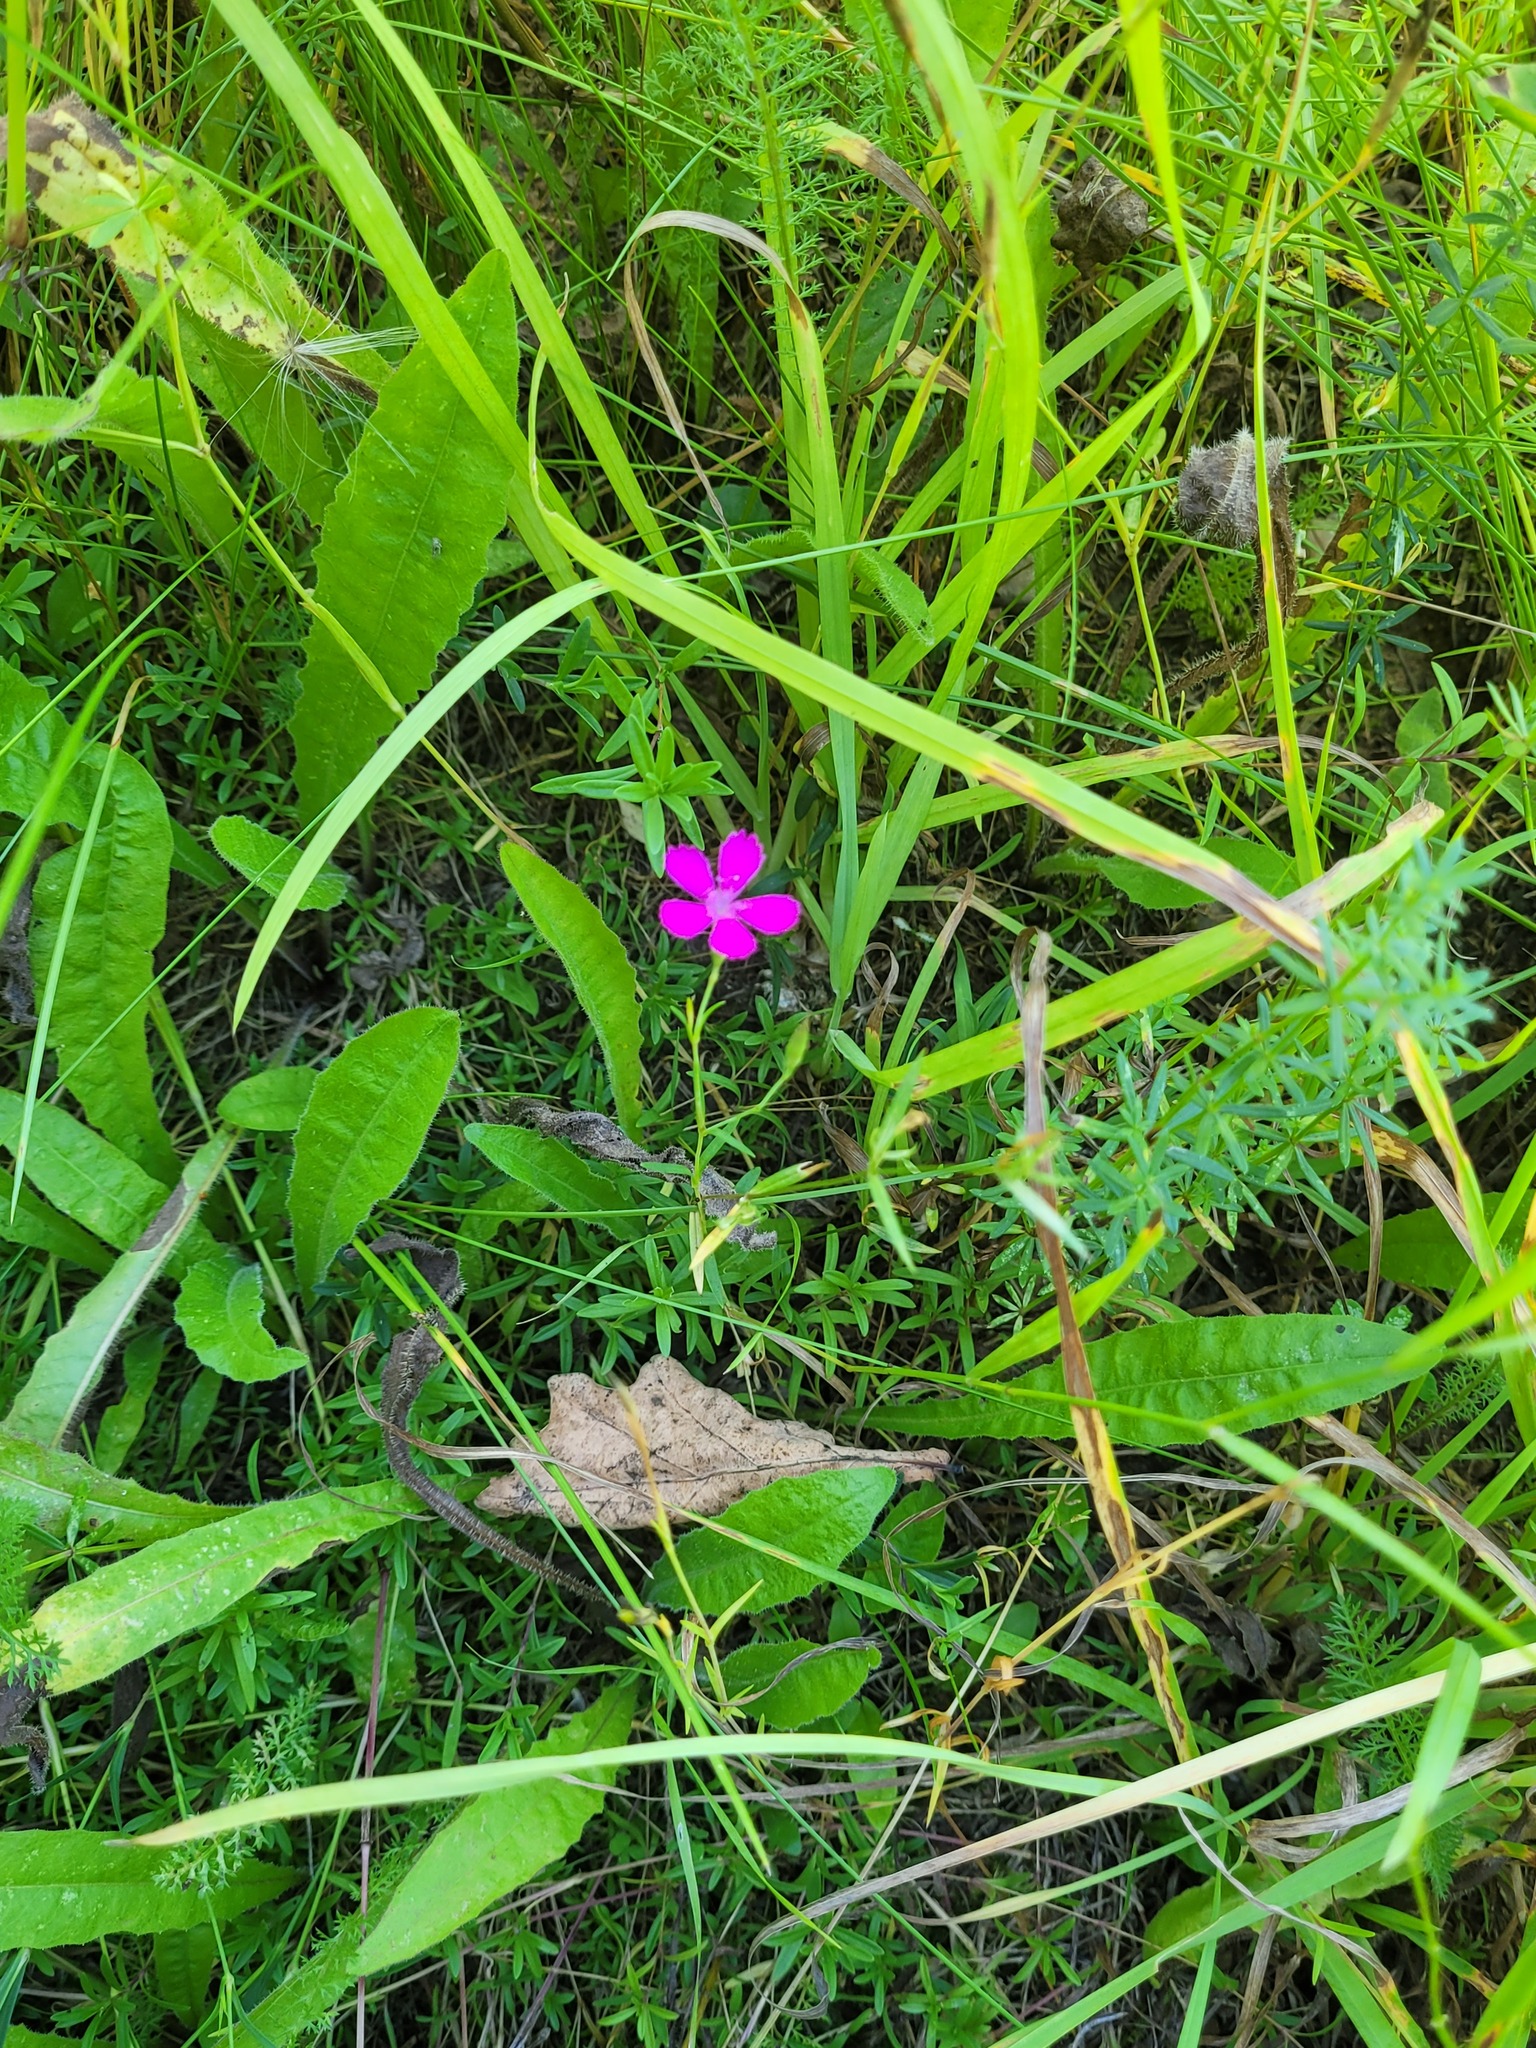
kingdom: Plantae
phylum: Tracheophyta
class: Magnoliopsida
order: Caryophyllales
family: Caryophyllaceae
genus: Dianthus
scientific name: Dianthus deltoides
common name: Maiden pink
